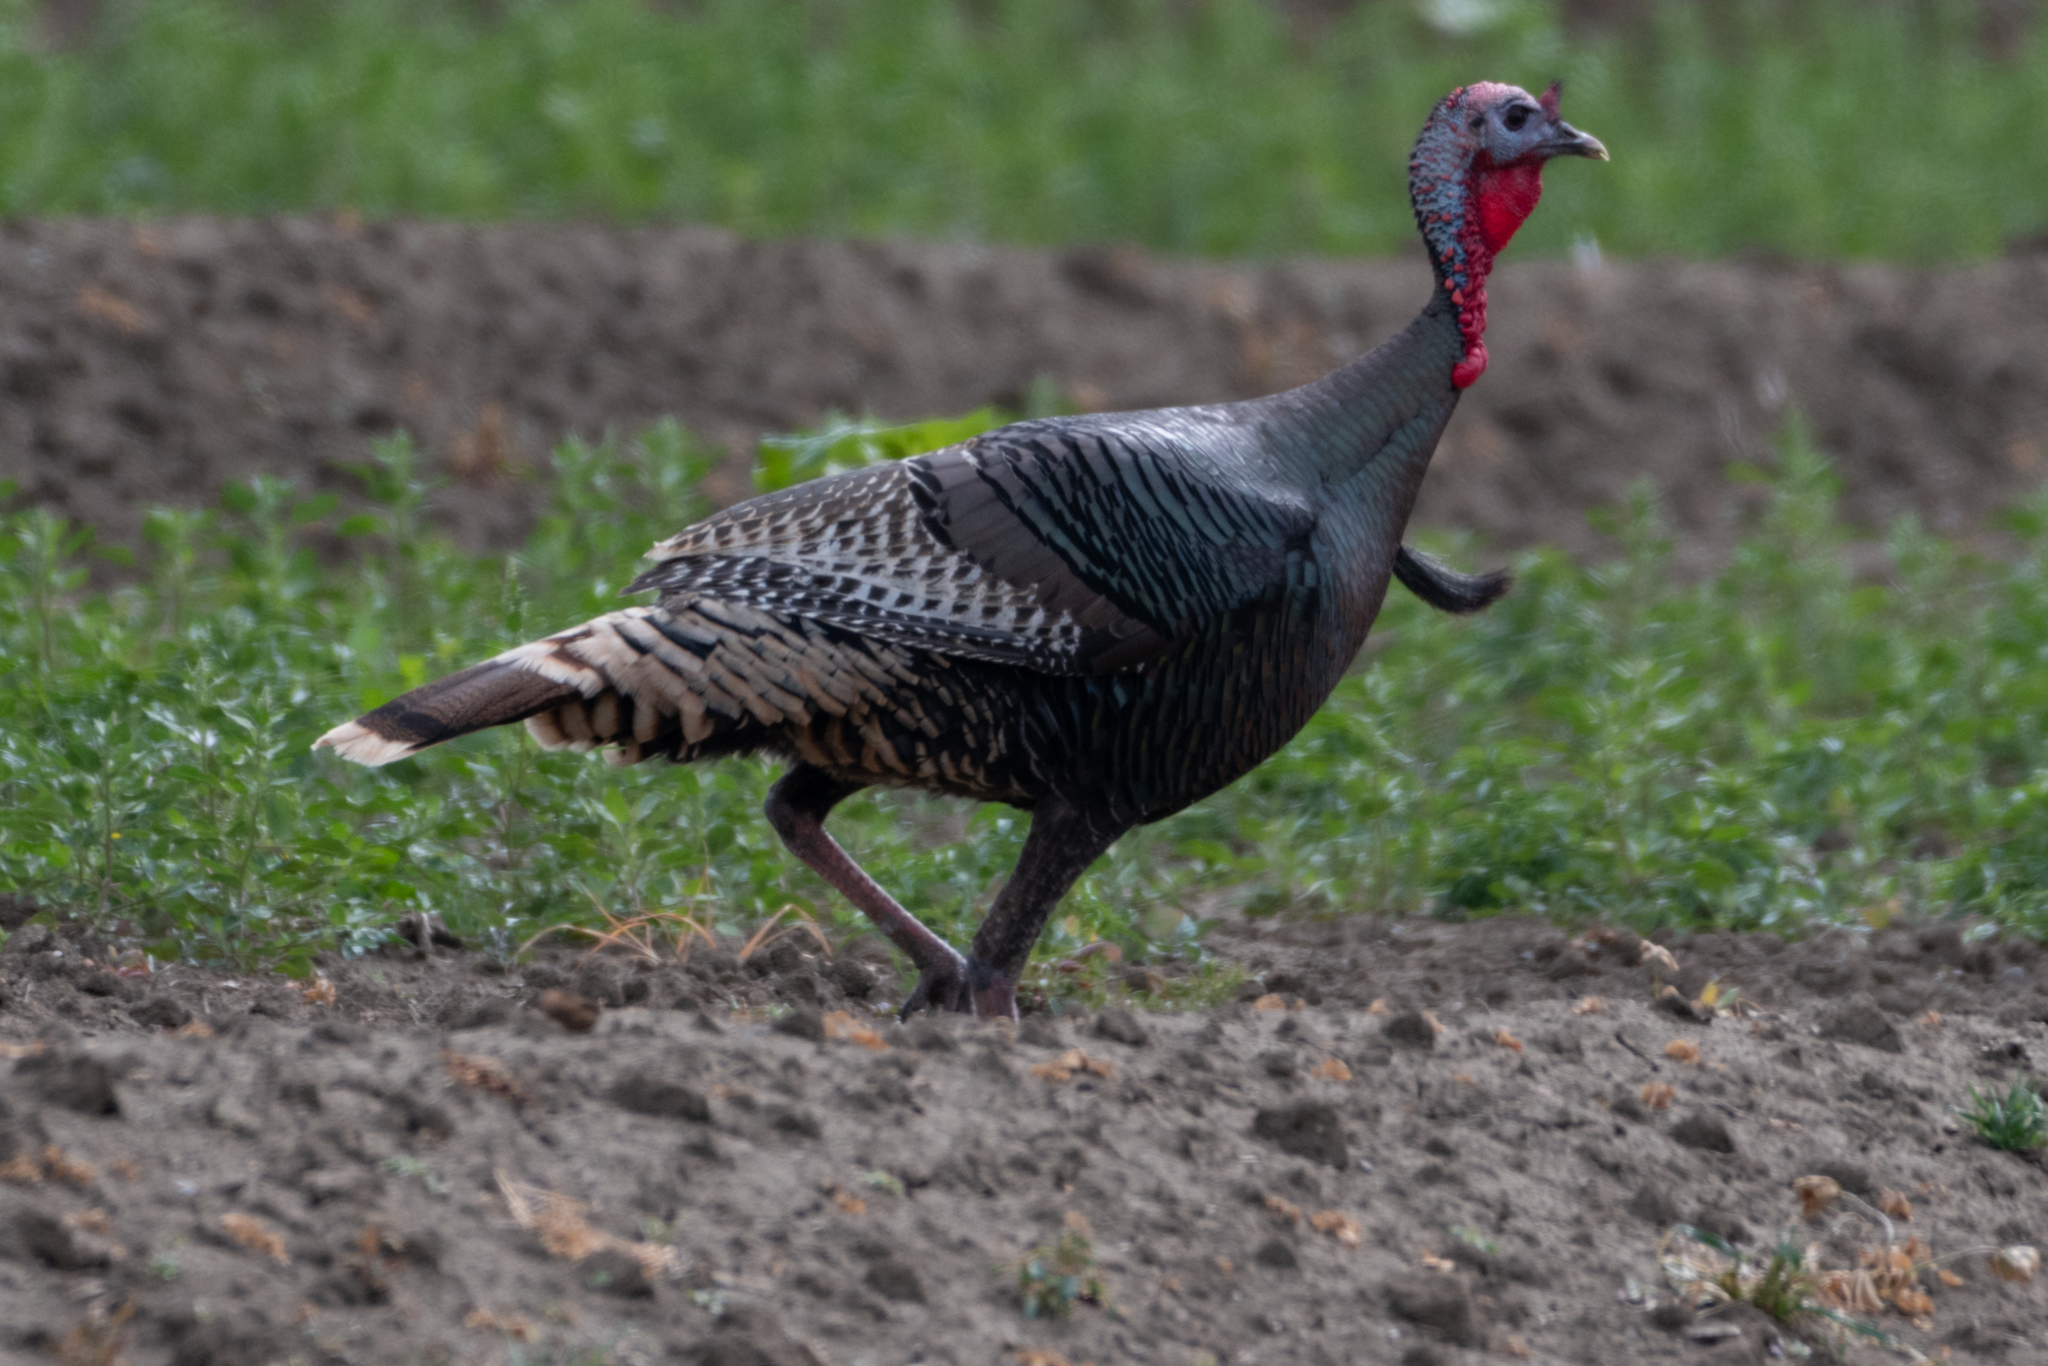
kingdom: Animalia
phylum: Chordata
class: Aves
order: Galliformes
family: Phasianidae
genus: Meleagris
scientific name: Meleagris gallopavo
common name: Wild turkey
